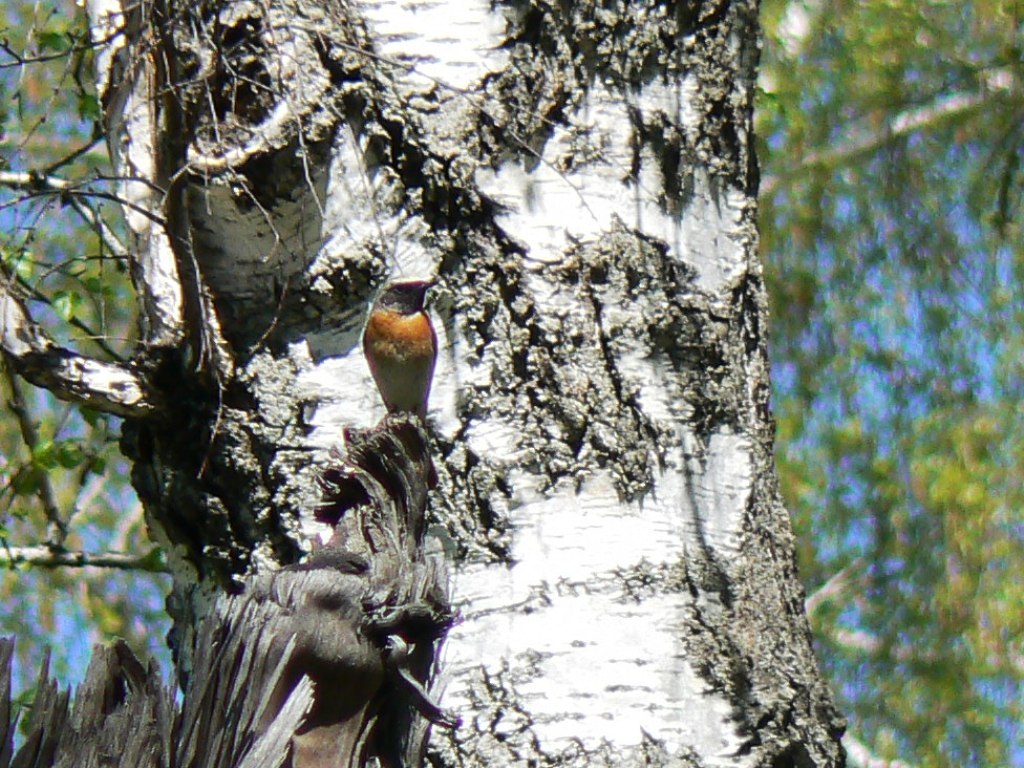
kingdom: Animalia
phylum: Chordata
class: Aves
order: Passeriformes
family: Muscicapidae
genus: Phoenicurus
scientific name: Phoenicurus phoenicurus
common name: Common redstart
